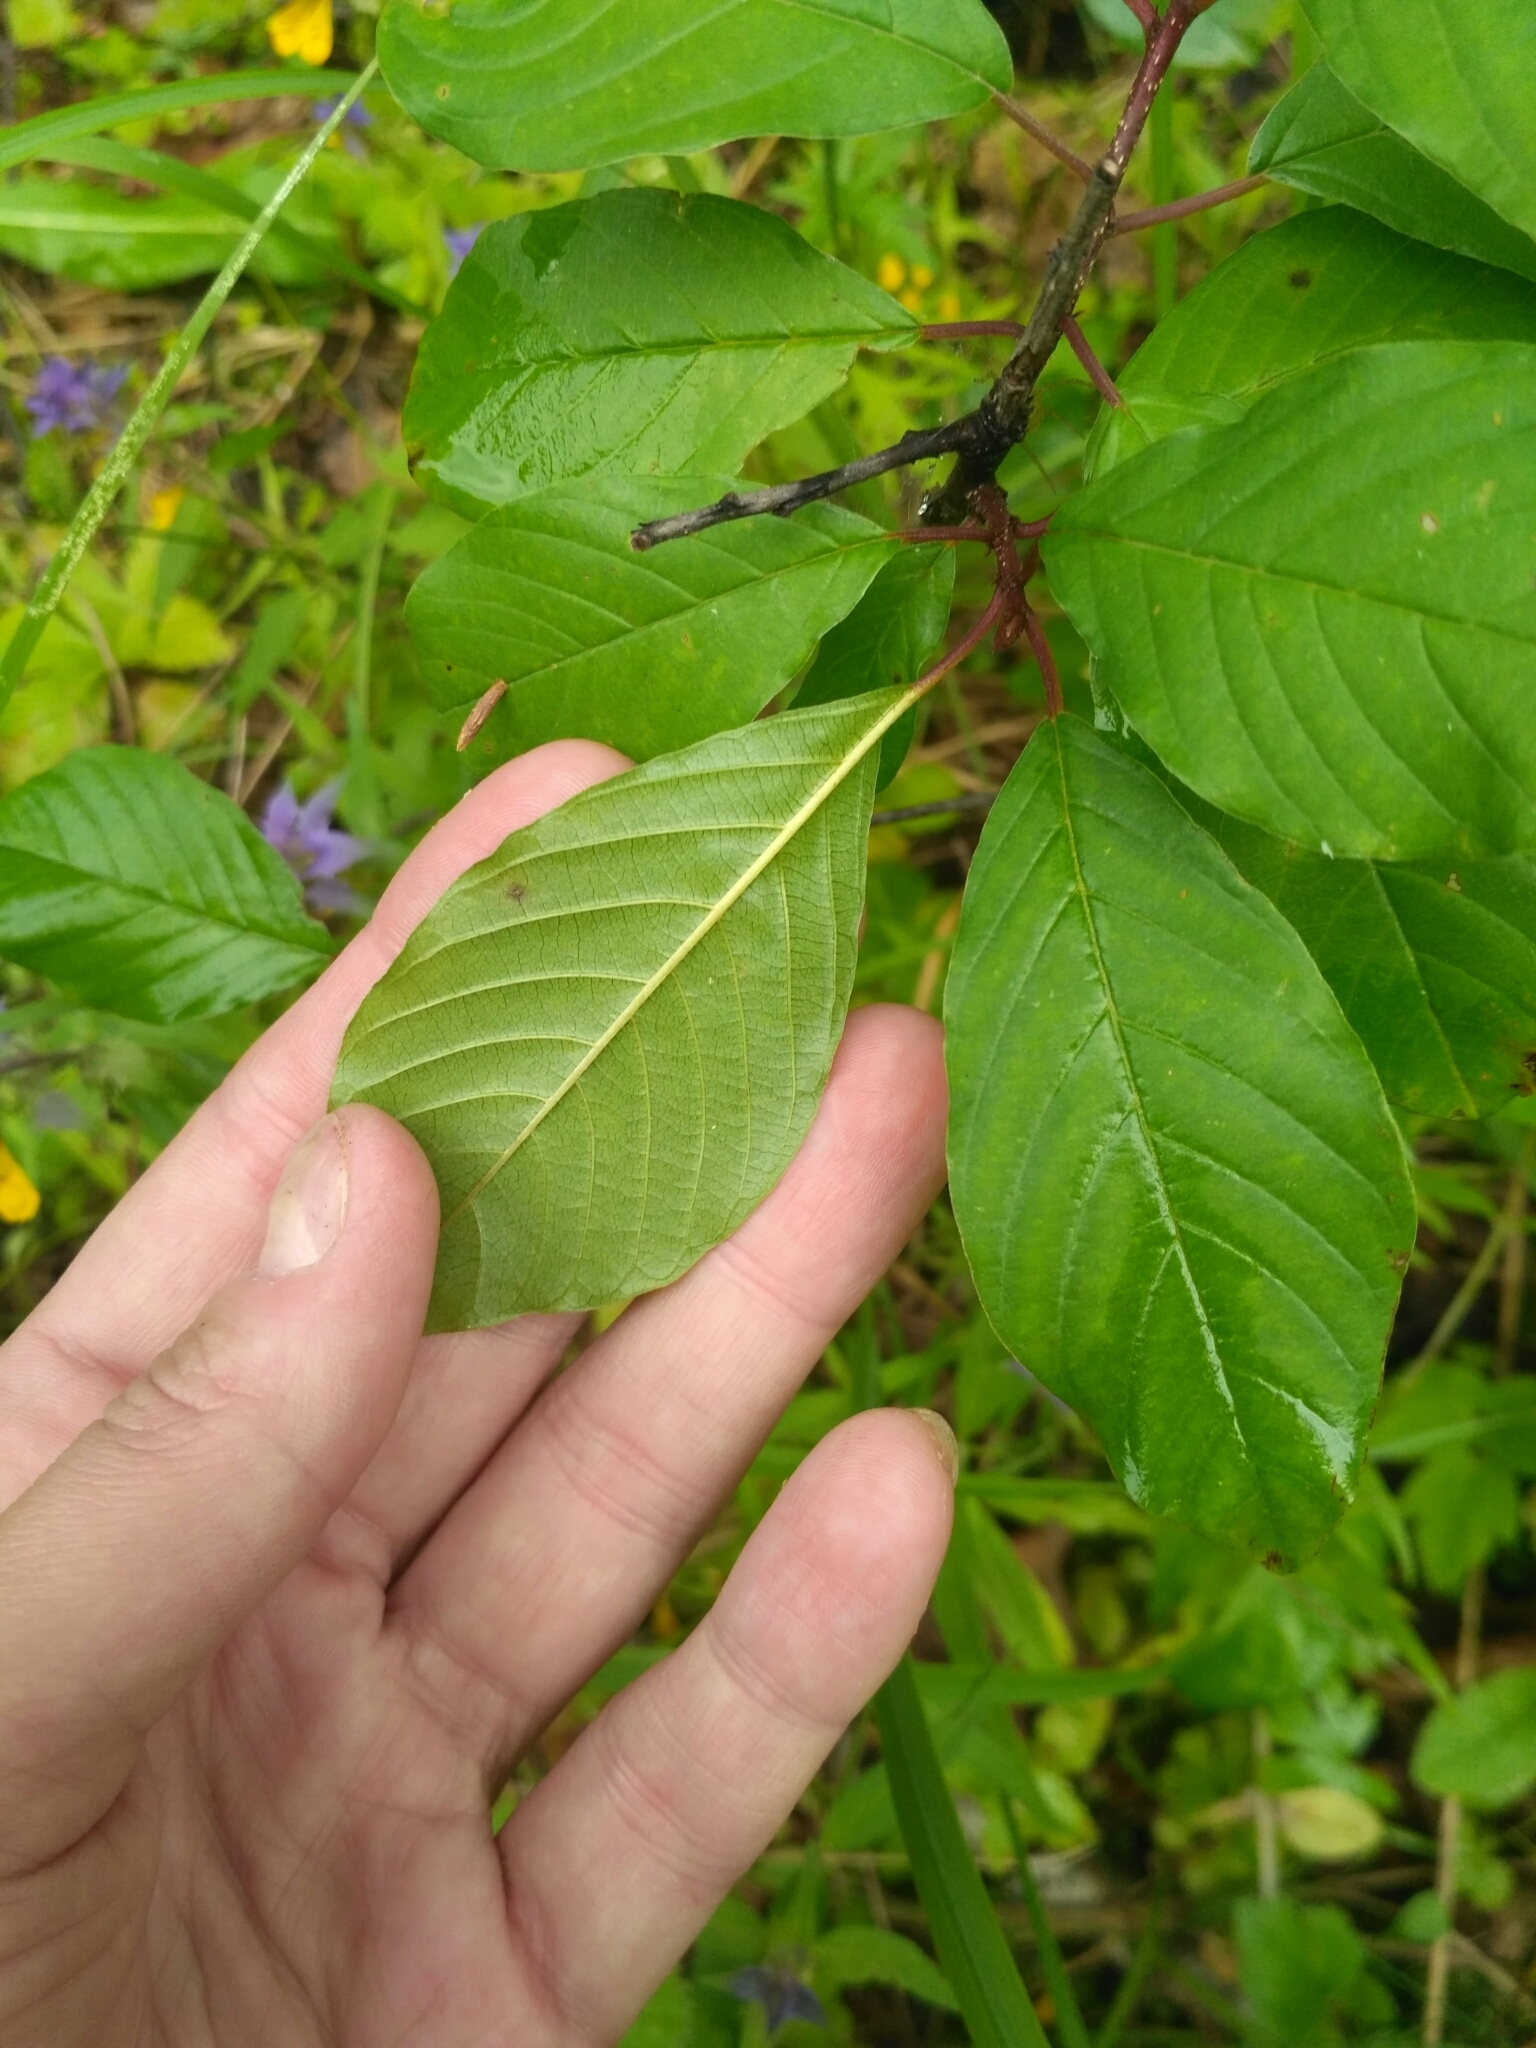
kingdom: Plantae
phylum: Tracheophyta
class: Magnoliopsida
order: Rosales
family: Rhamnaceae
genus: Frangula
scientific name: Frangula alnus
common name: Alder buckthorn
